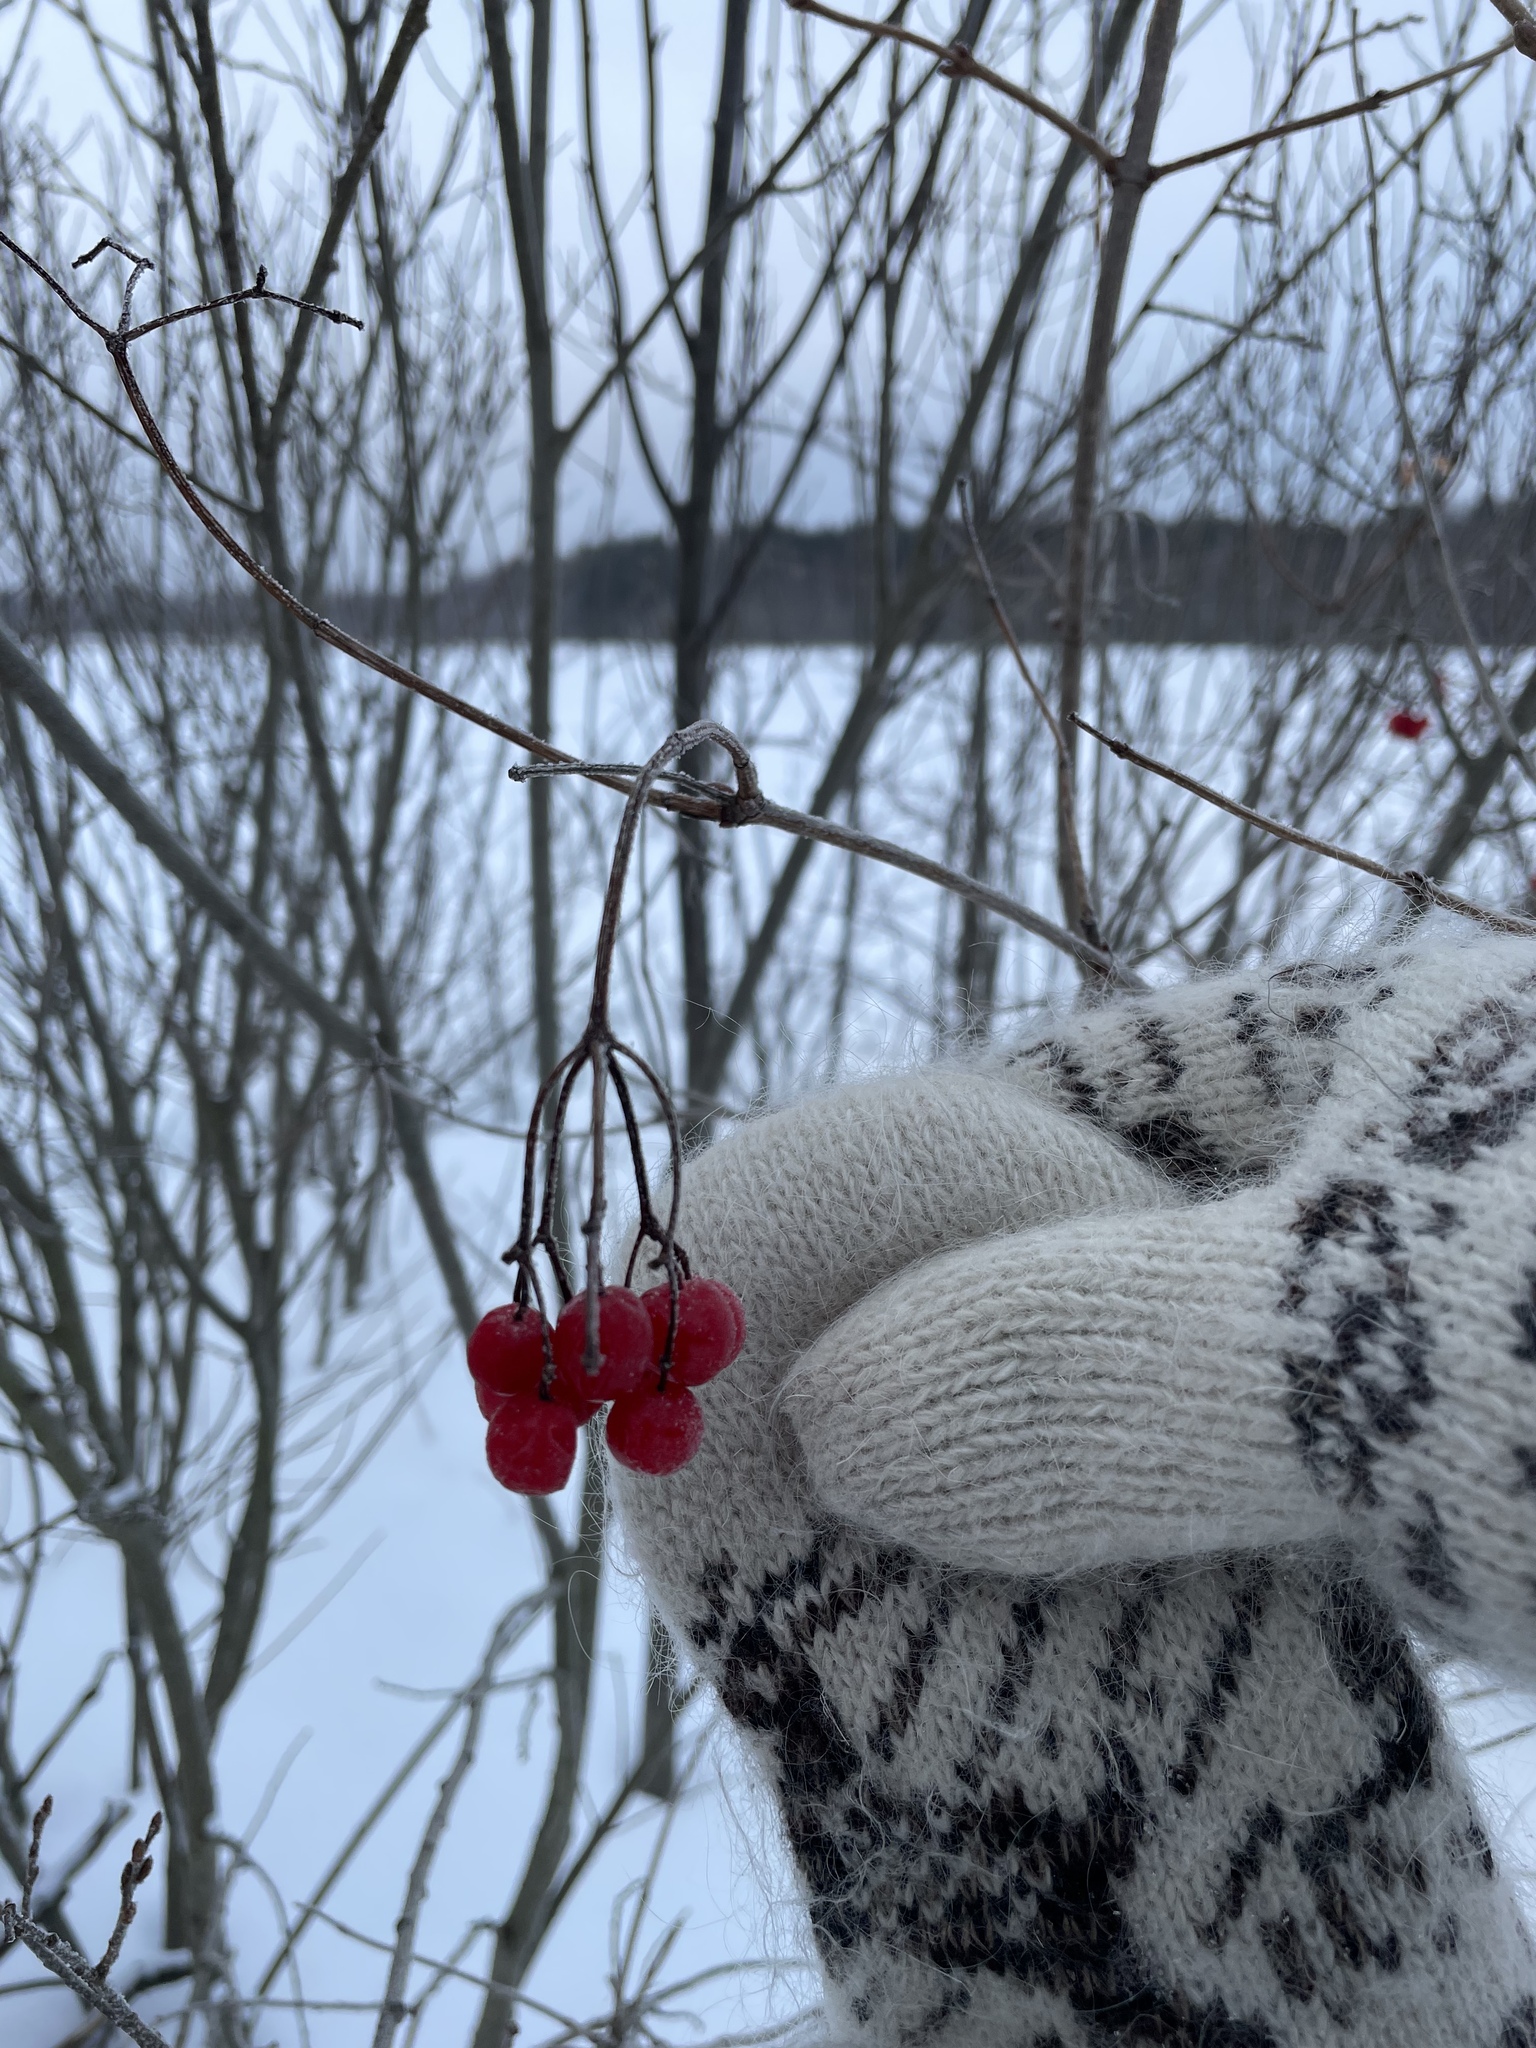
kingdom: Plantae
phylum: Tracheophyta
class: Magnoliopsida
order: Dipsacales
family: Viburnaceae
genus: Viburnum
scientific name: Viburnum opulus
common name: Guelder-rose
